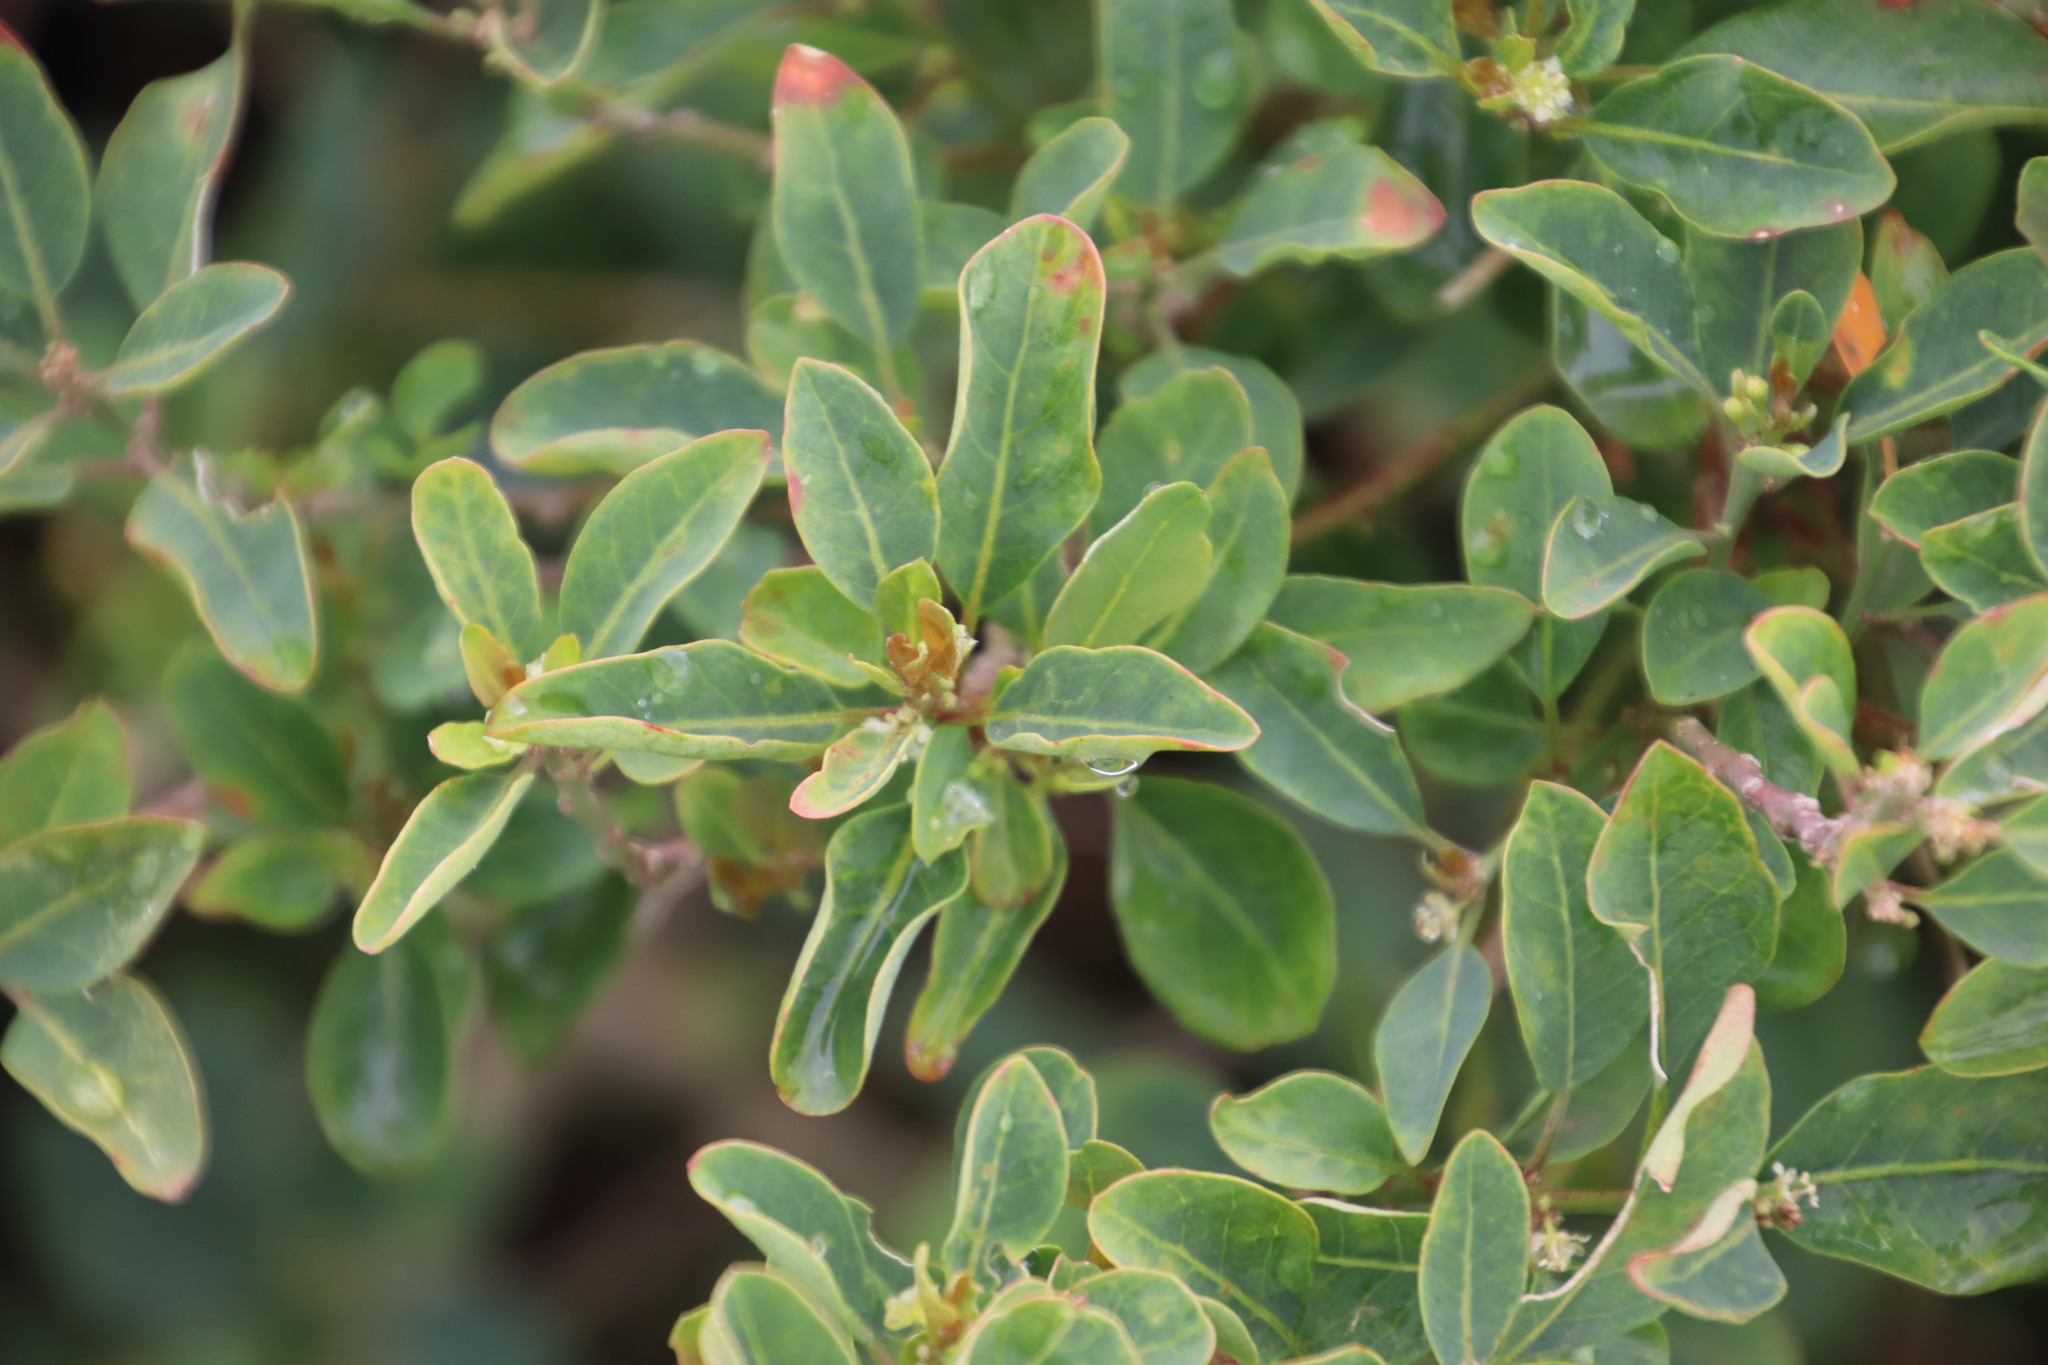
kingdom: Plantae
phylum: Tracheophyta
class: Magnoliopsida
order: Malpighiales
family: Peraceae
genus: Clutia
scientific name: Clutia pulchella
